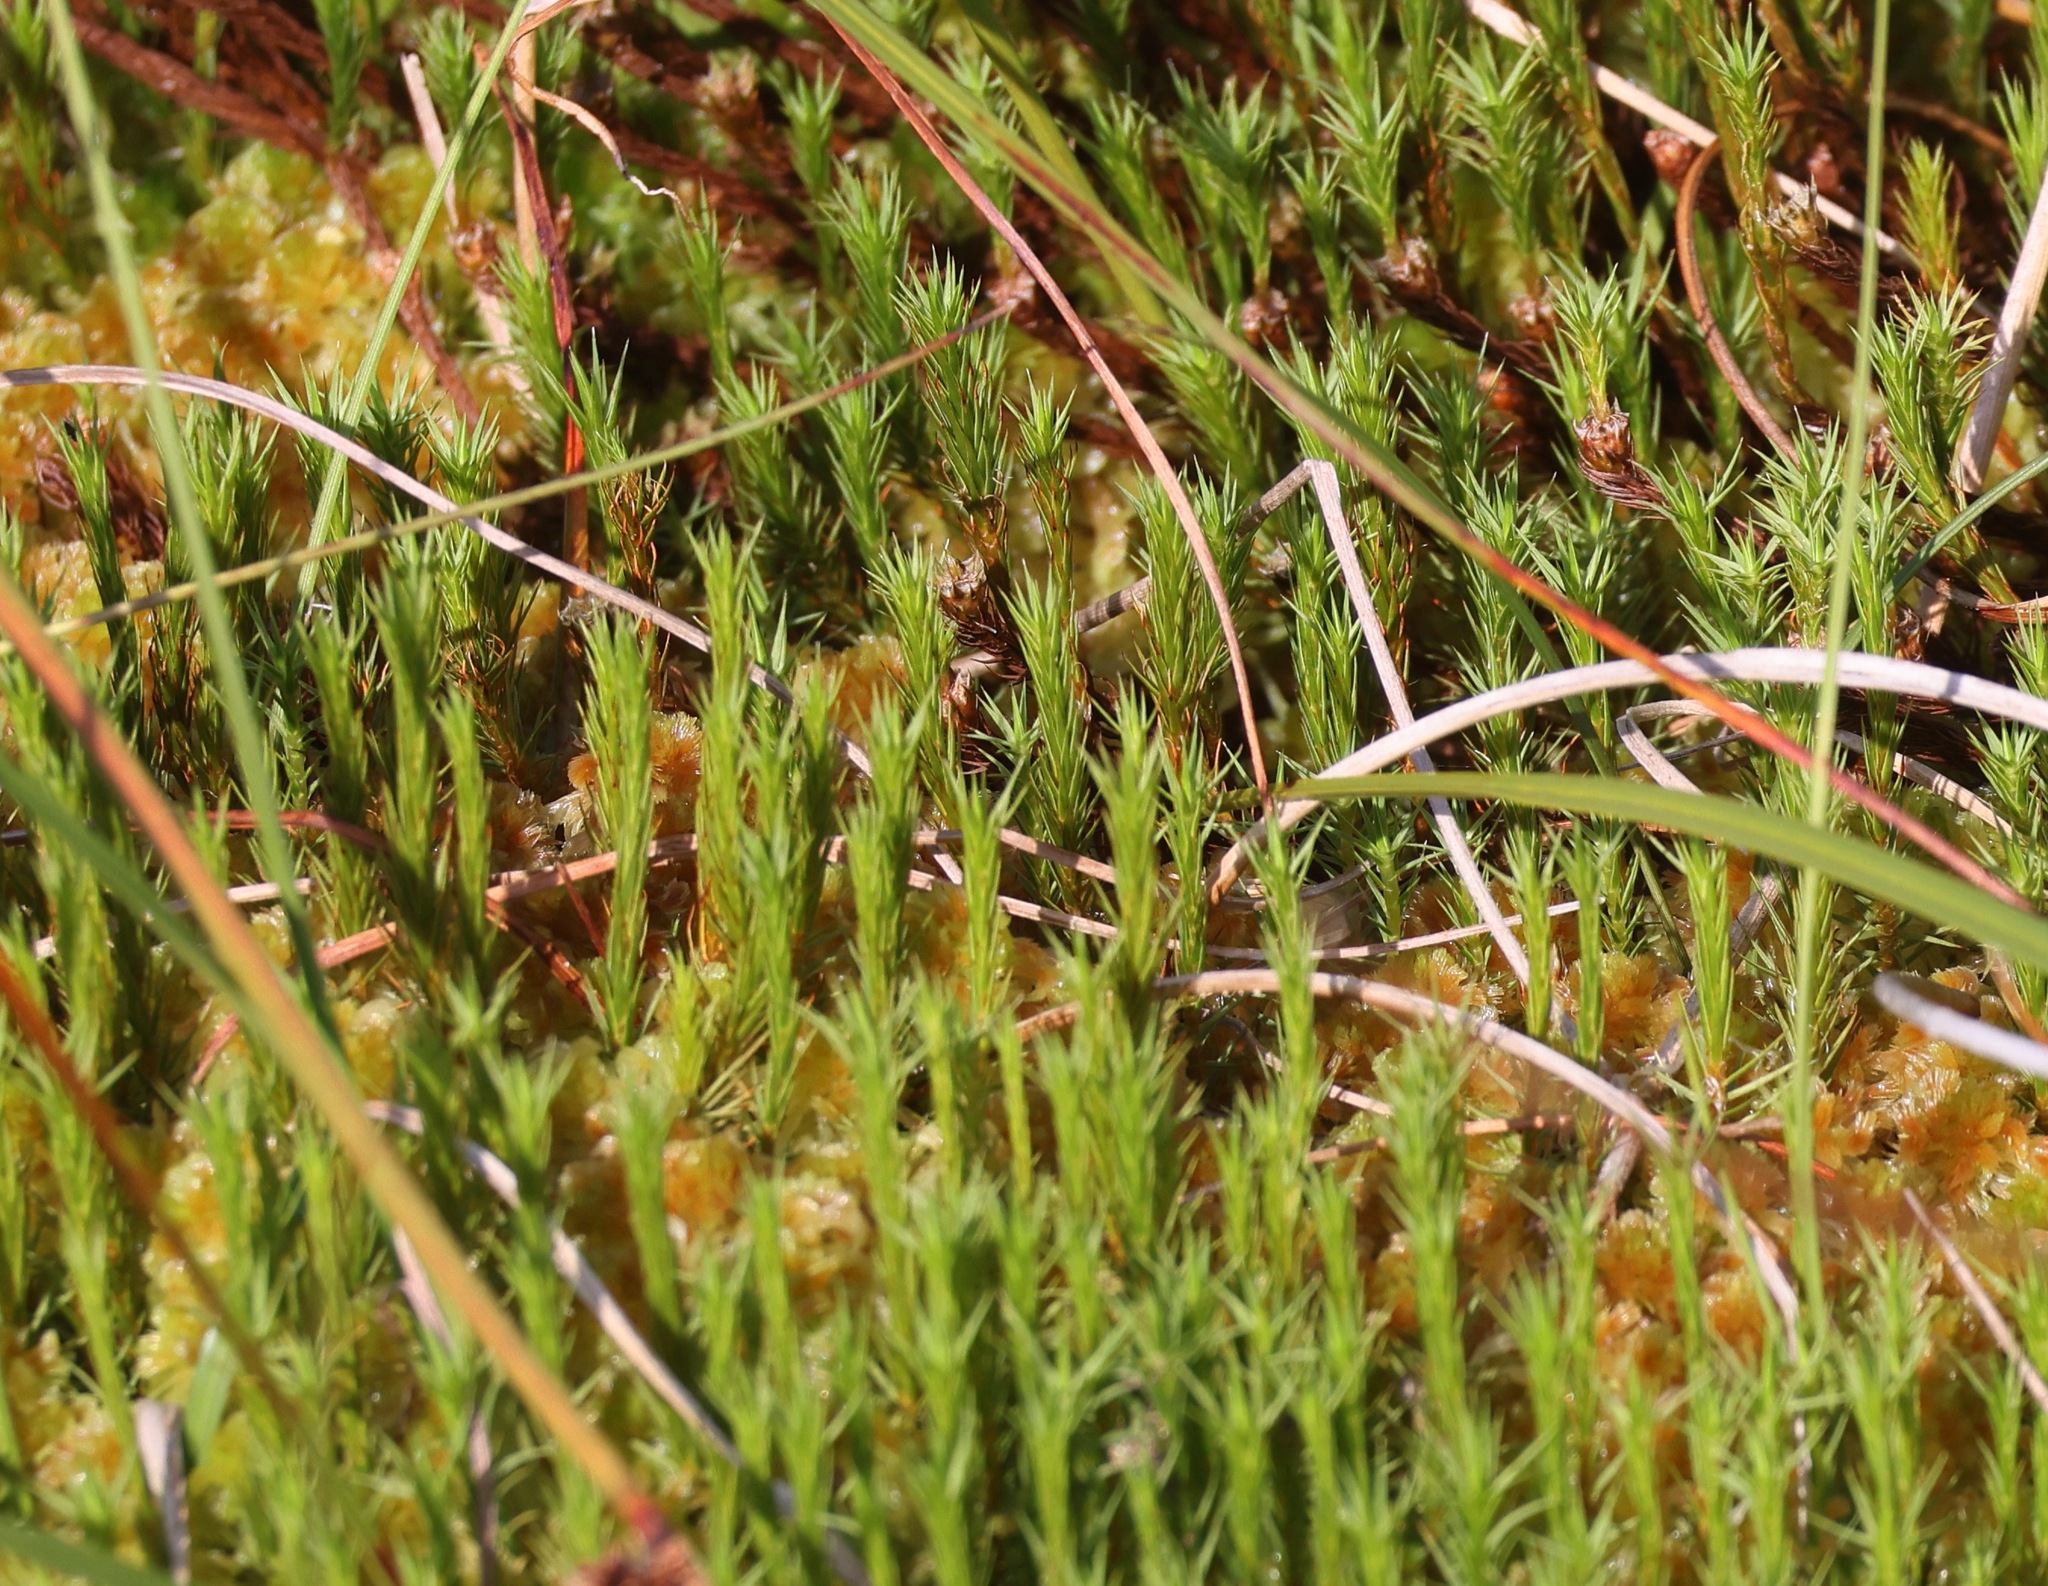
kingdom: Plantae
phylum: Bryophyta
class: Polytrichopsida
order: Polytrichales
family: Polytrichaceae
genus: Polytrichum
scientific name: Polytrichum strictum
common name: Bog haircap moss
